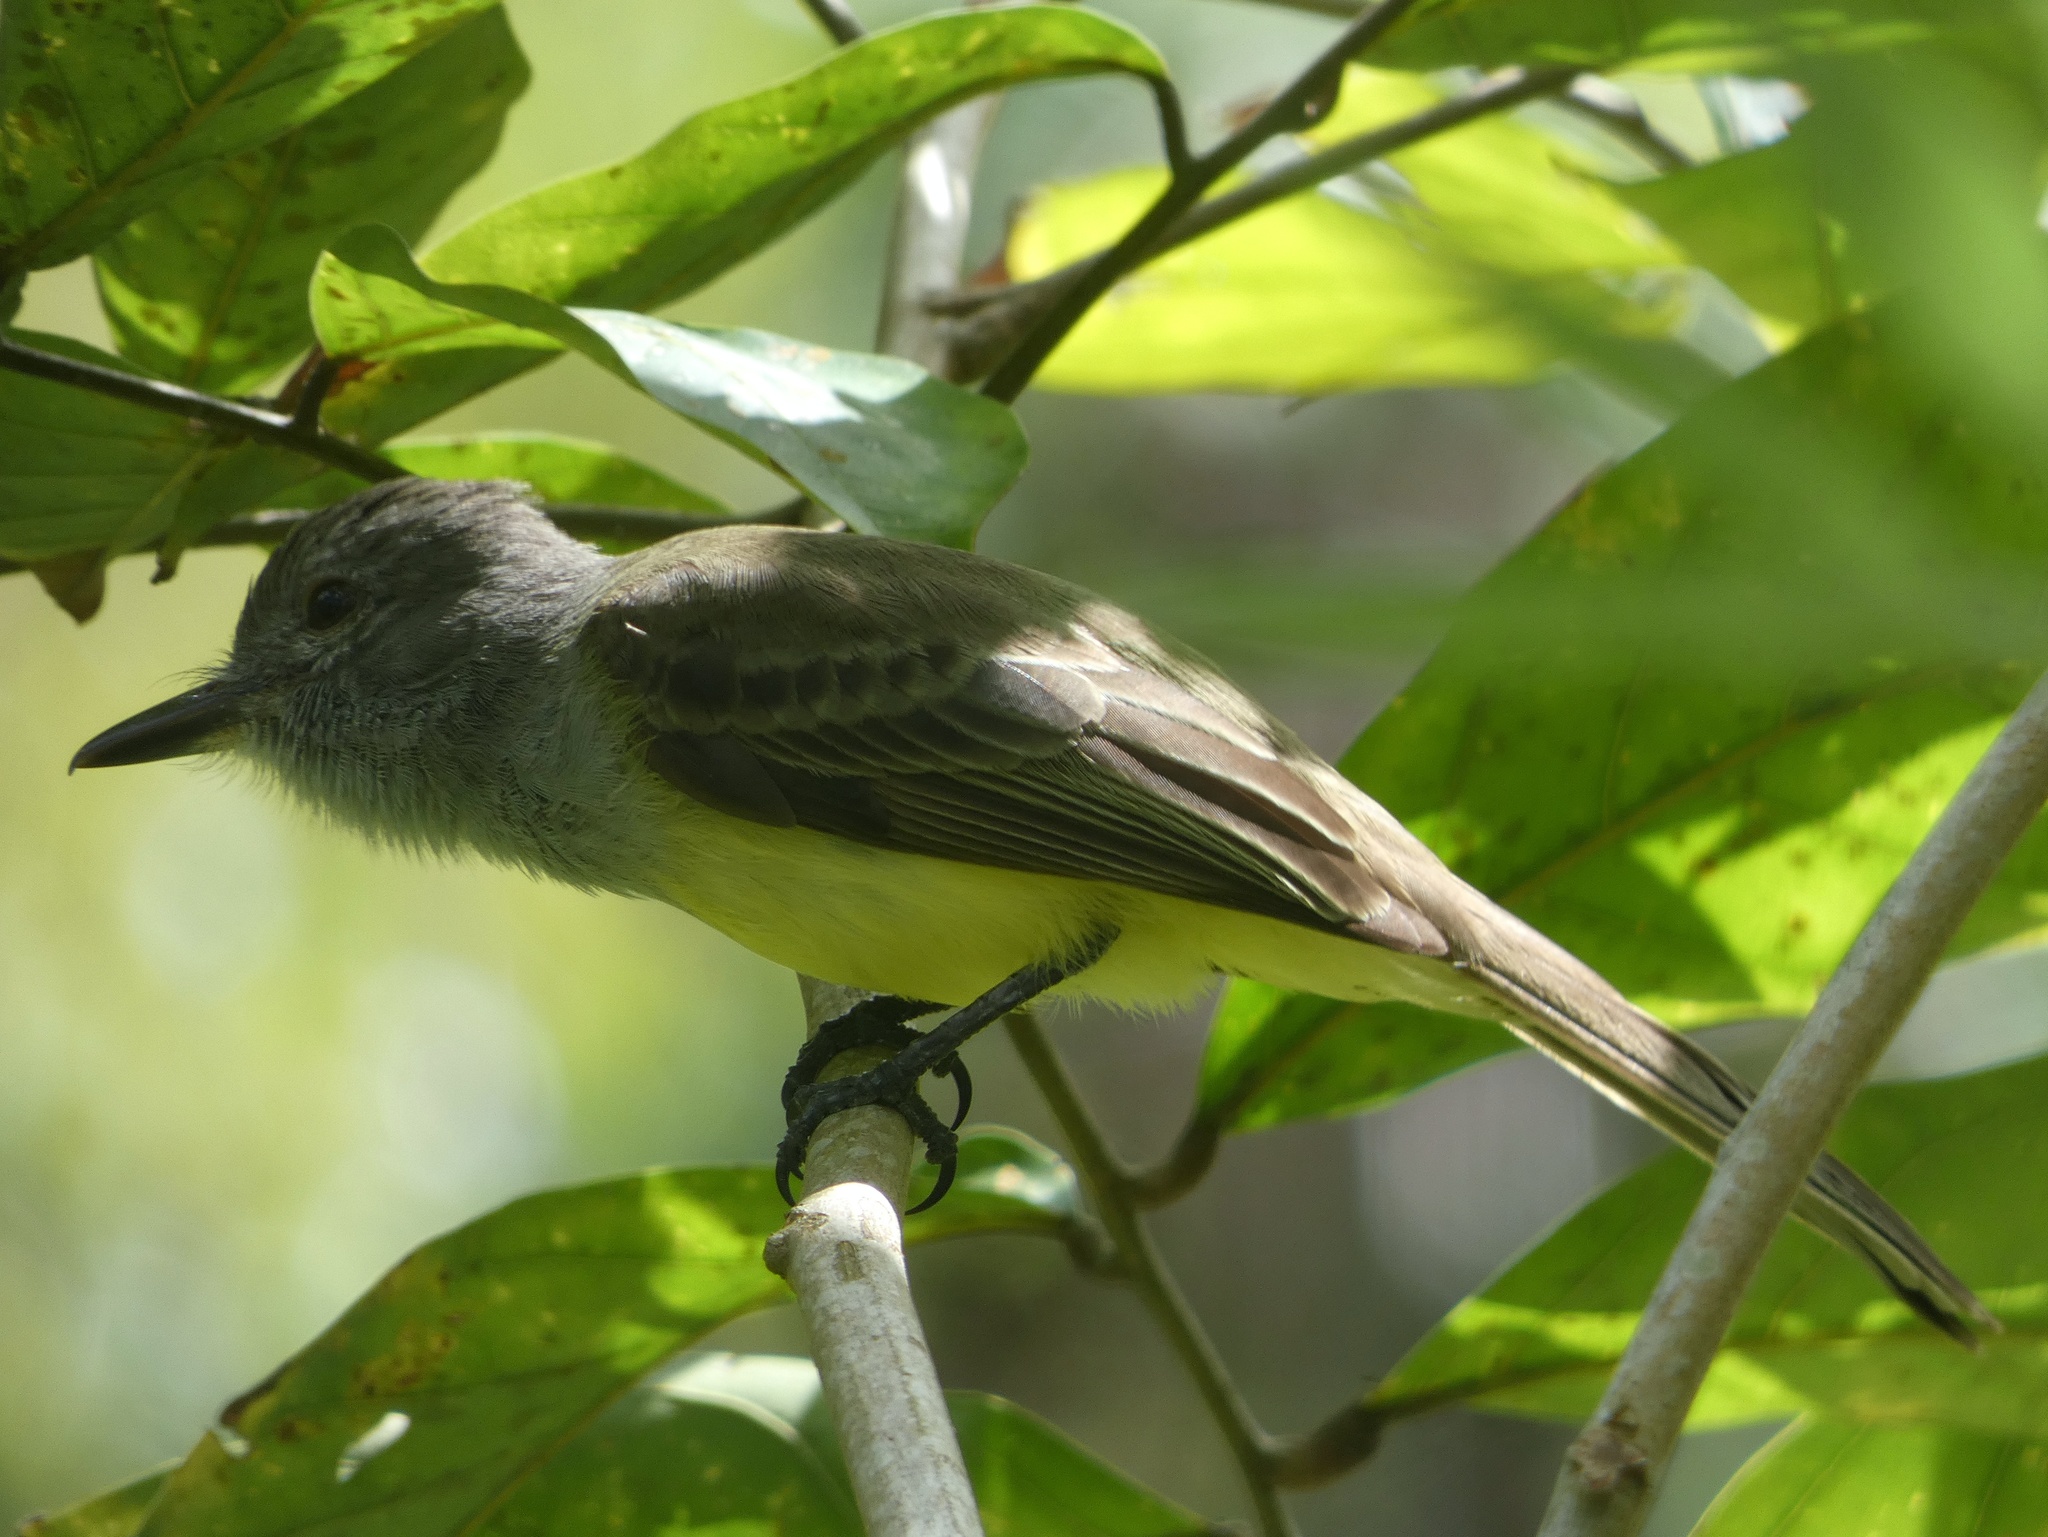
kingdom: Animalia
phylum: Chordata
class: Aves
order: Passeriformes
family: Tyrannidae
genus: Myiarchus
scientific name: Myiarchus panamensis
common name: Panama flycatcher
